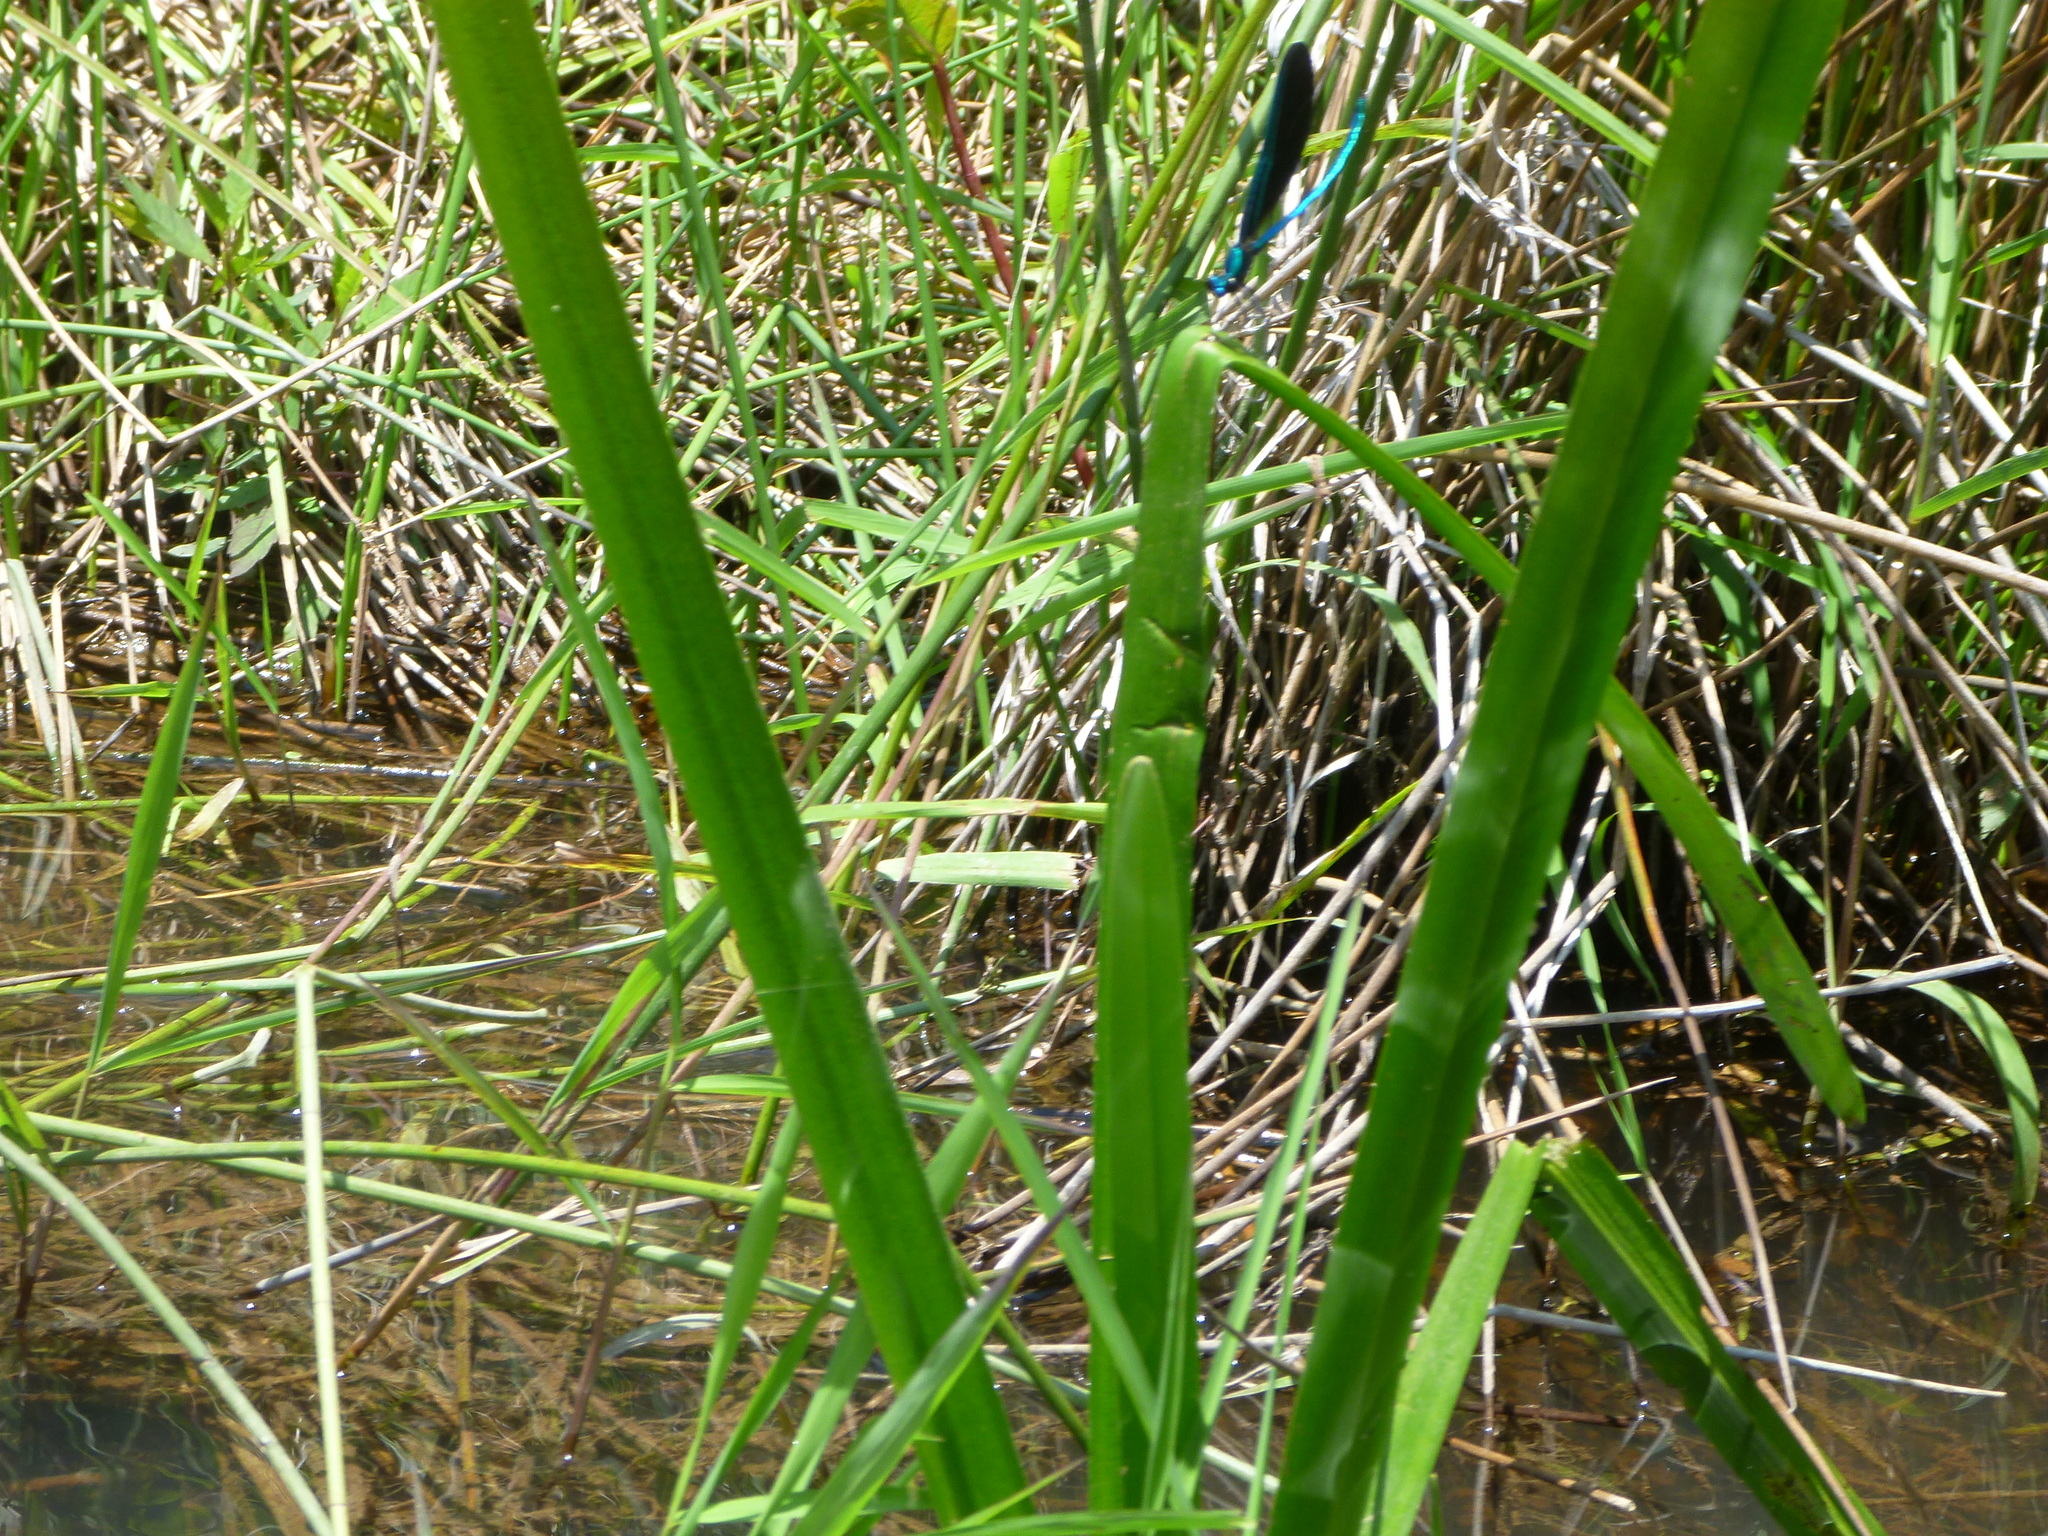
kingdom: Animalia
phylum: Arthropoda
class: Insecta
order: Odonata
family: Calopterygidae
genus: Calopteryx
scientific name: Calopteryx maculata
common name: Ebony jewelwing
